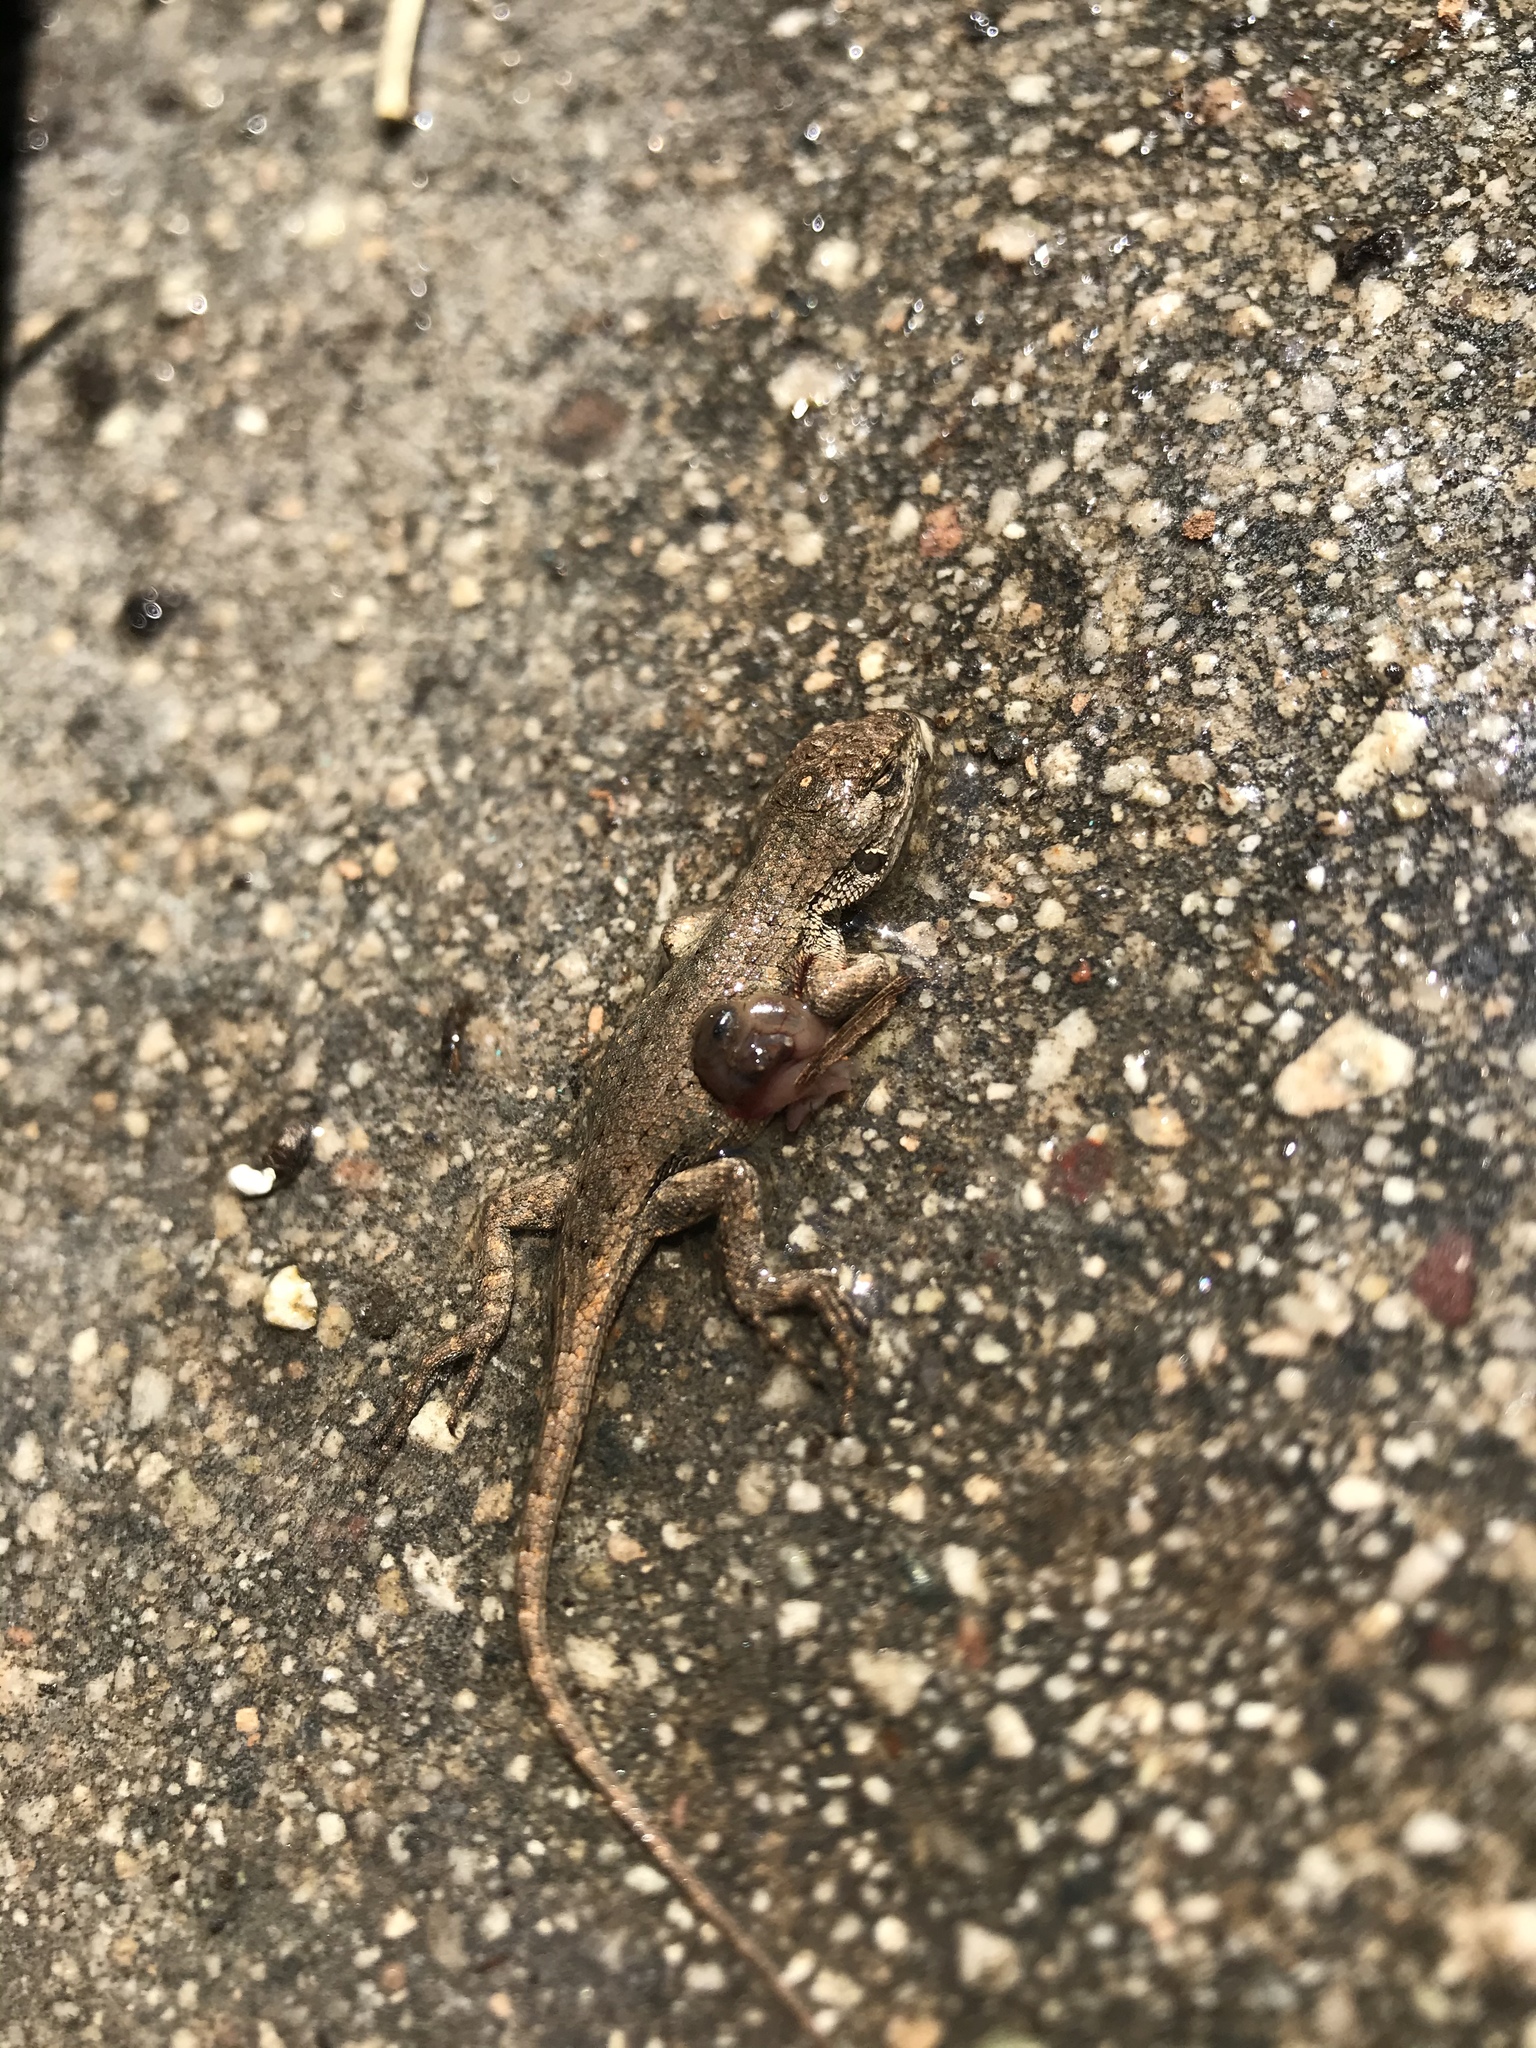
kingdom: Animalia
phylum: Chordata
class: Squamata
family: Phrynosomatidae
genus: Sceloporus
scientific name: Sceloporus occidentalis
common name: Western fence lizard
